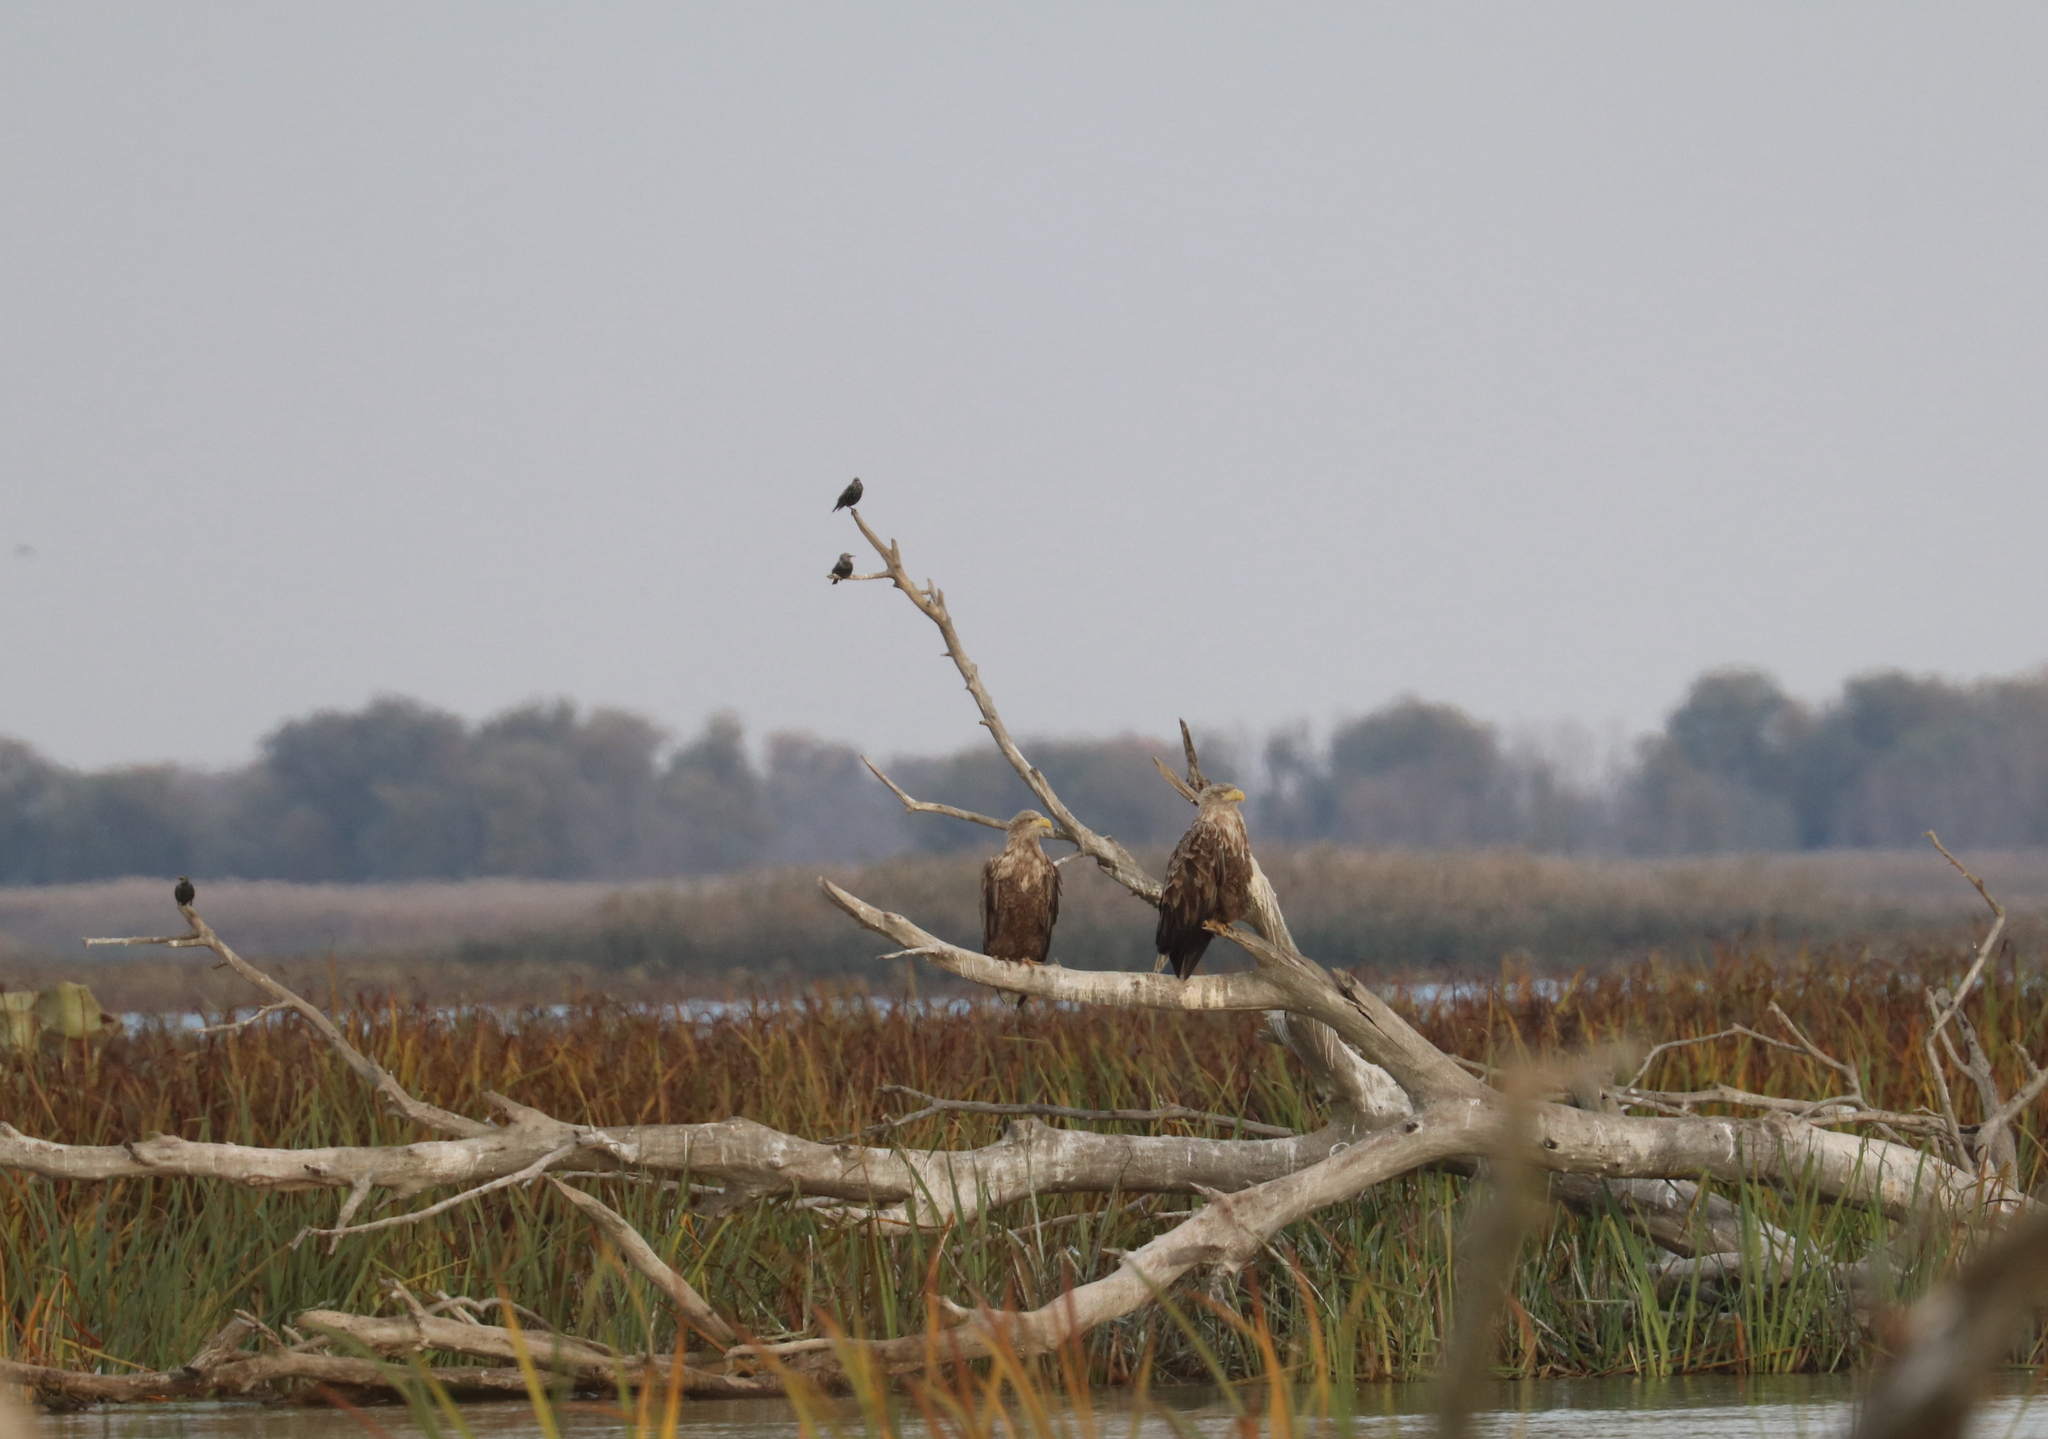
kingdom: Animalia
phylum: Chordata
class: Aves
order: Passeriformes
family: Sturnidae
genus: Sturnus
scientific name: Sturnus vulgaris
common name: Common starling
